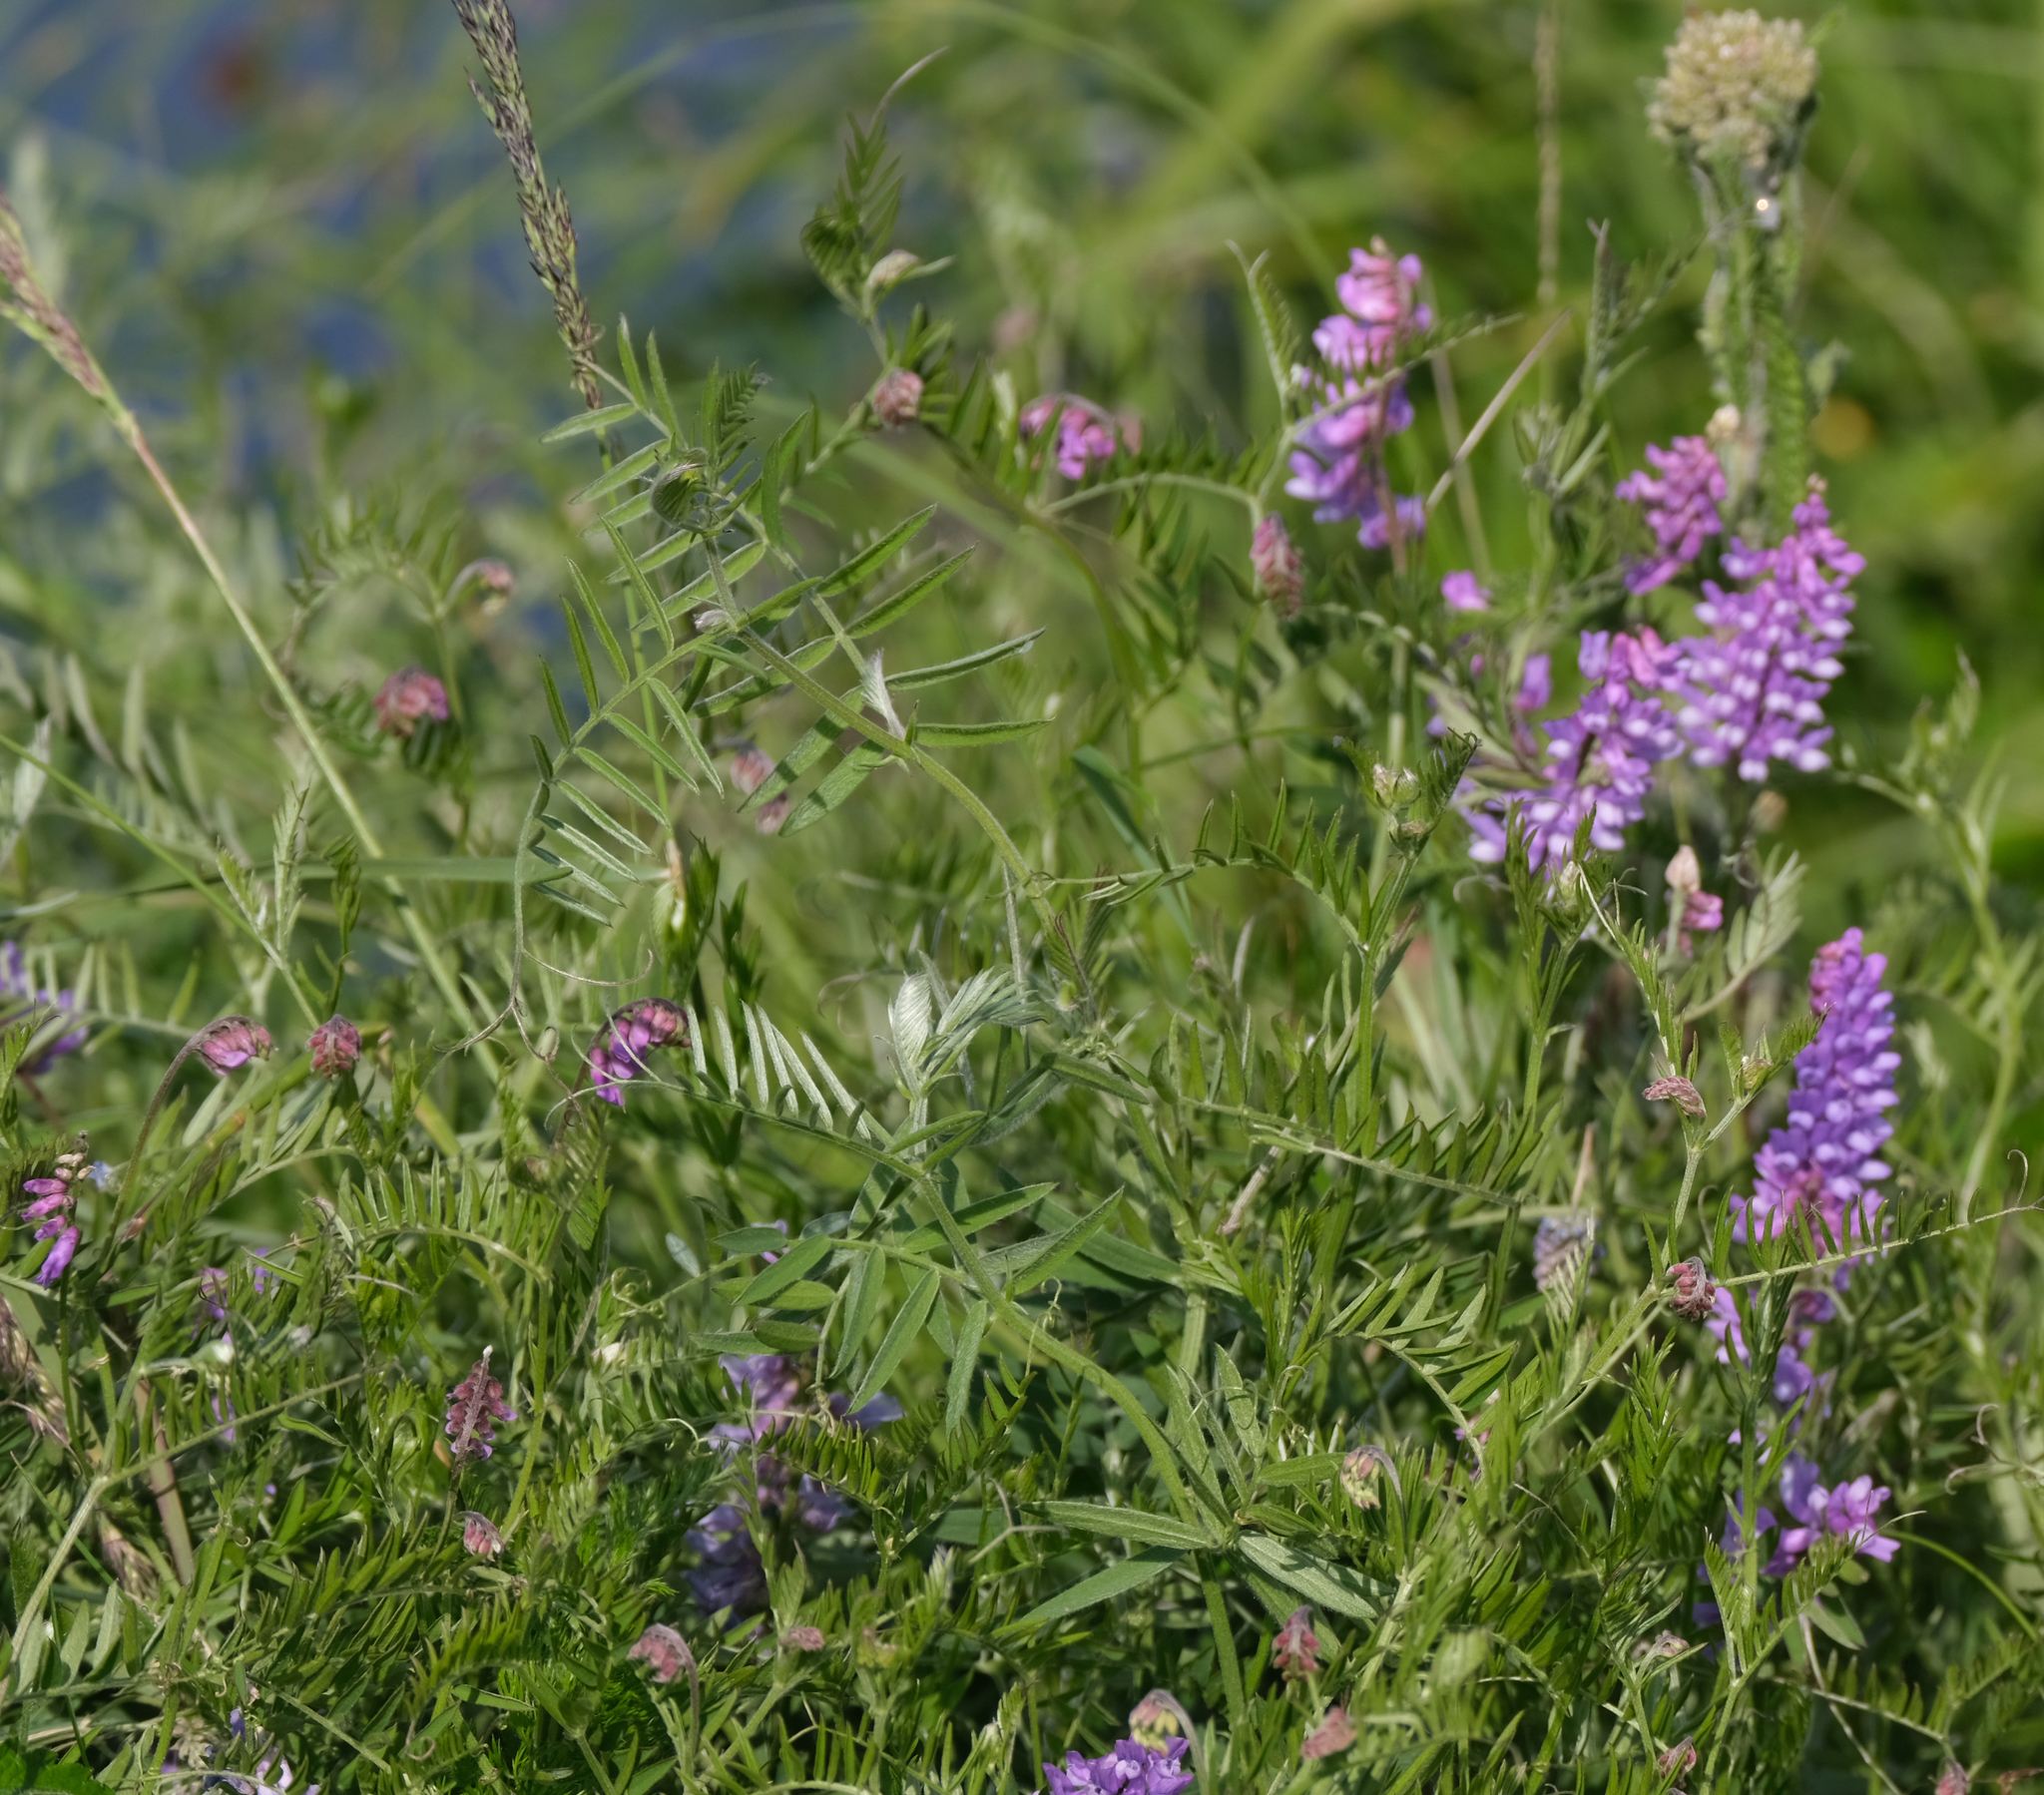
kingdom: Plantae
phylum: Tracheophyta
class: Magnoliopsida
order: Fabales
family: Fabaceae
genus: Vicia
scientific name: Vicia cracca
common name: Bird vetch
